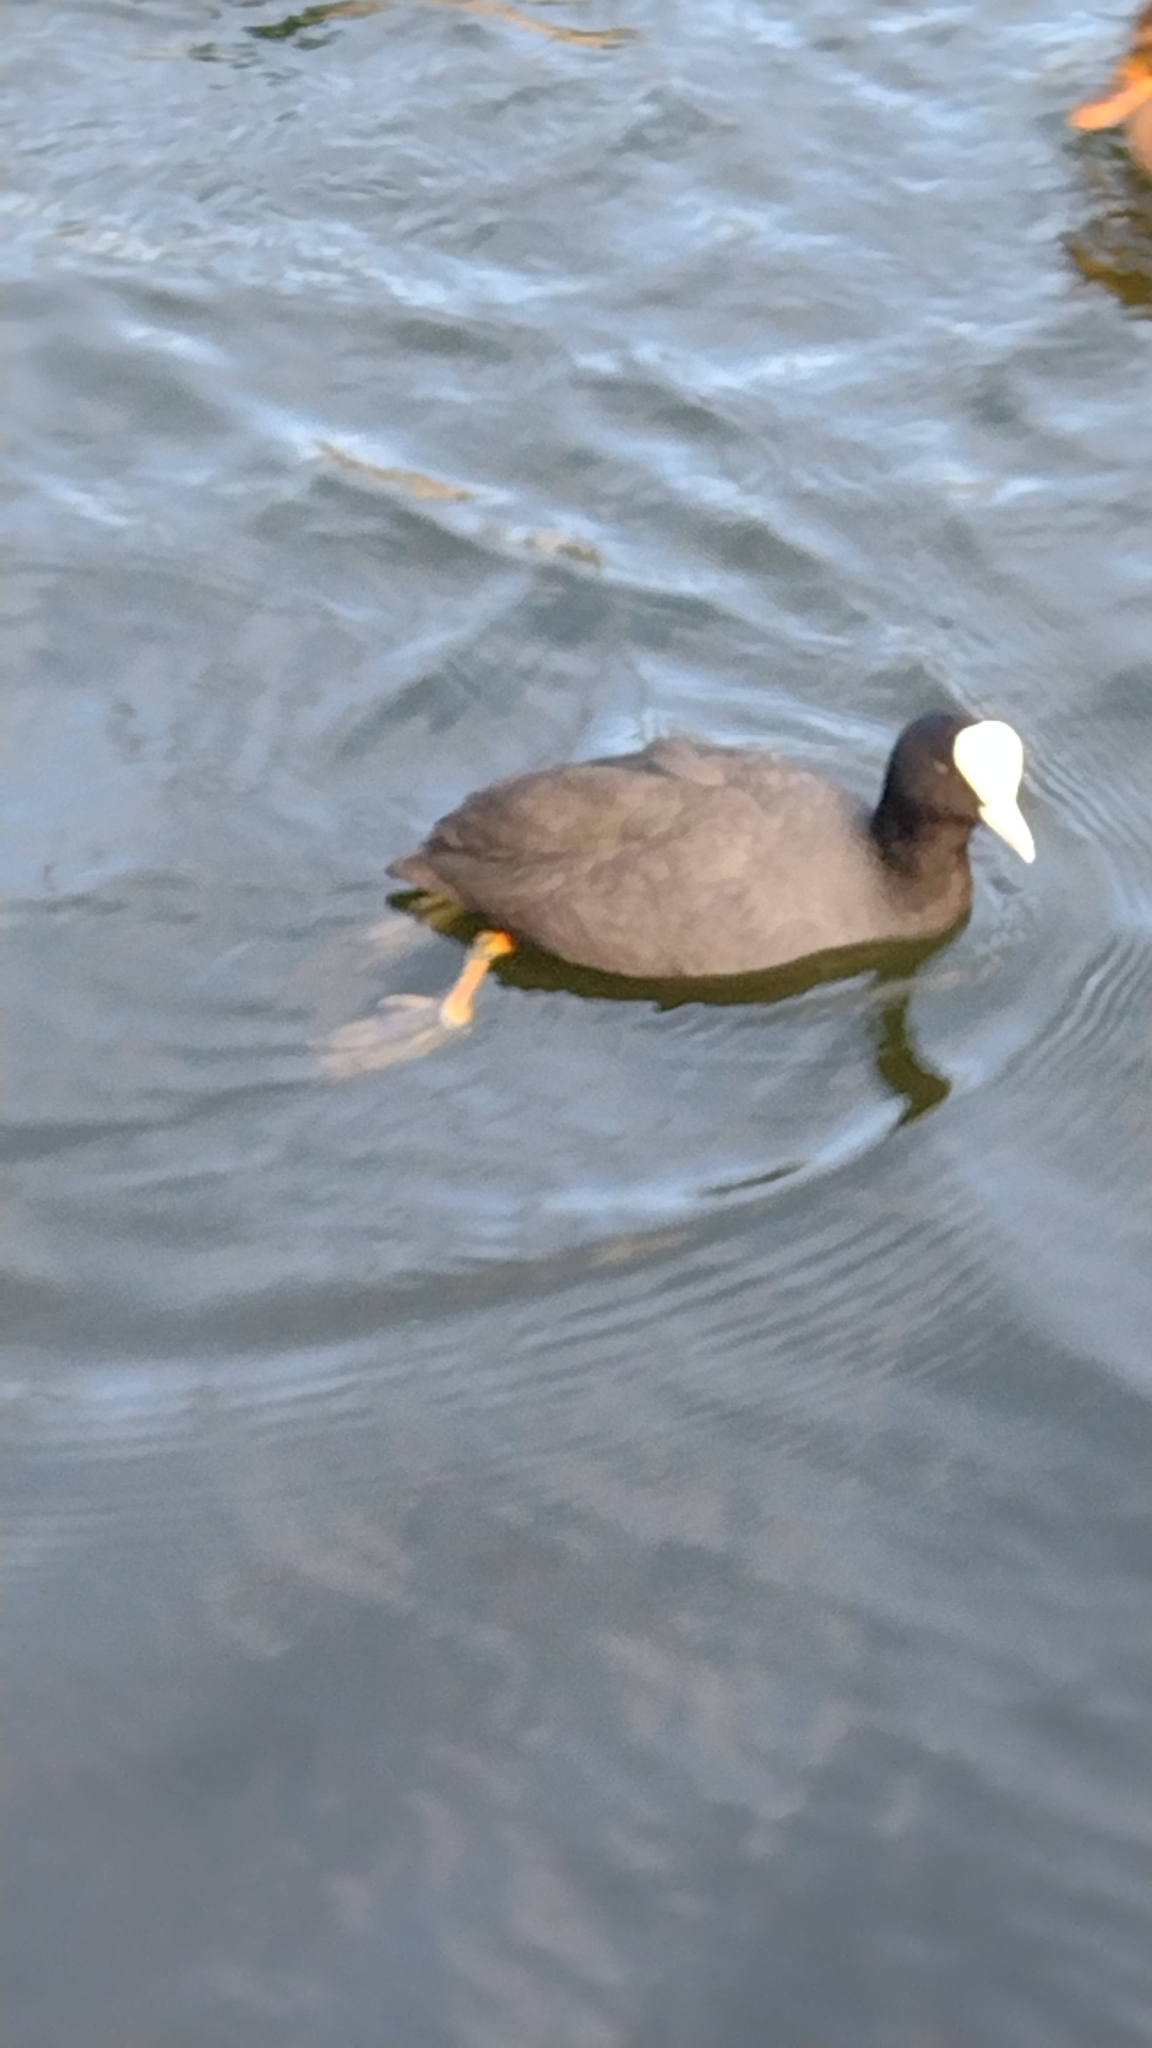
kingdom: Animalia
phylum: Chordata
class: Aves
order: Gruiformes
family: Rallidae
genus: Fulica
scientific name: Fulica atra
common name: Eurasian coot
